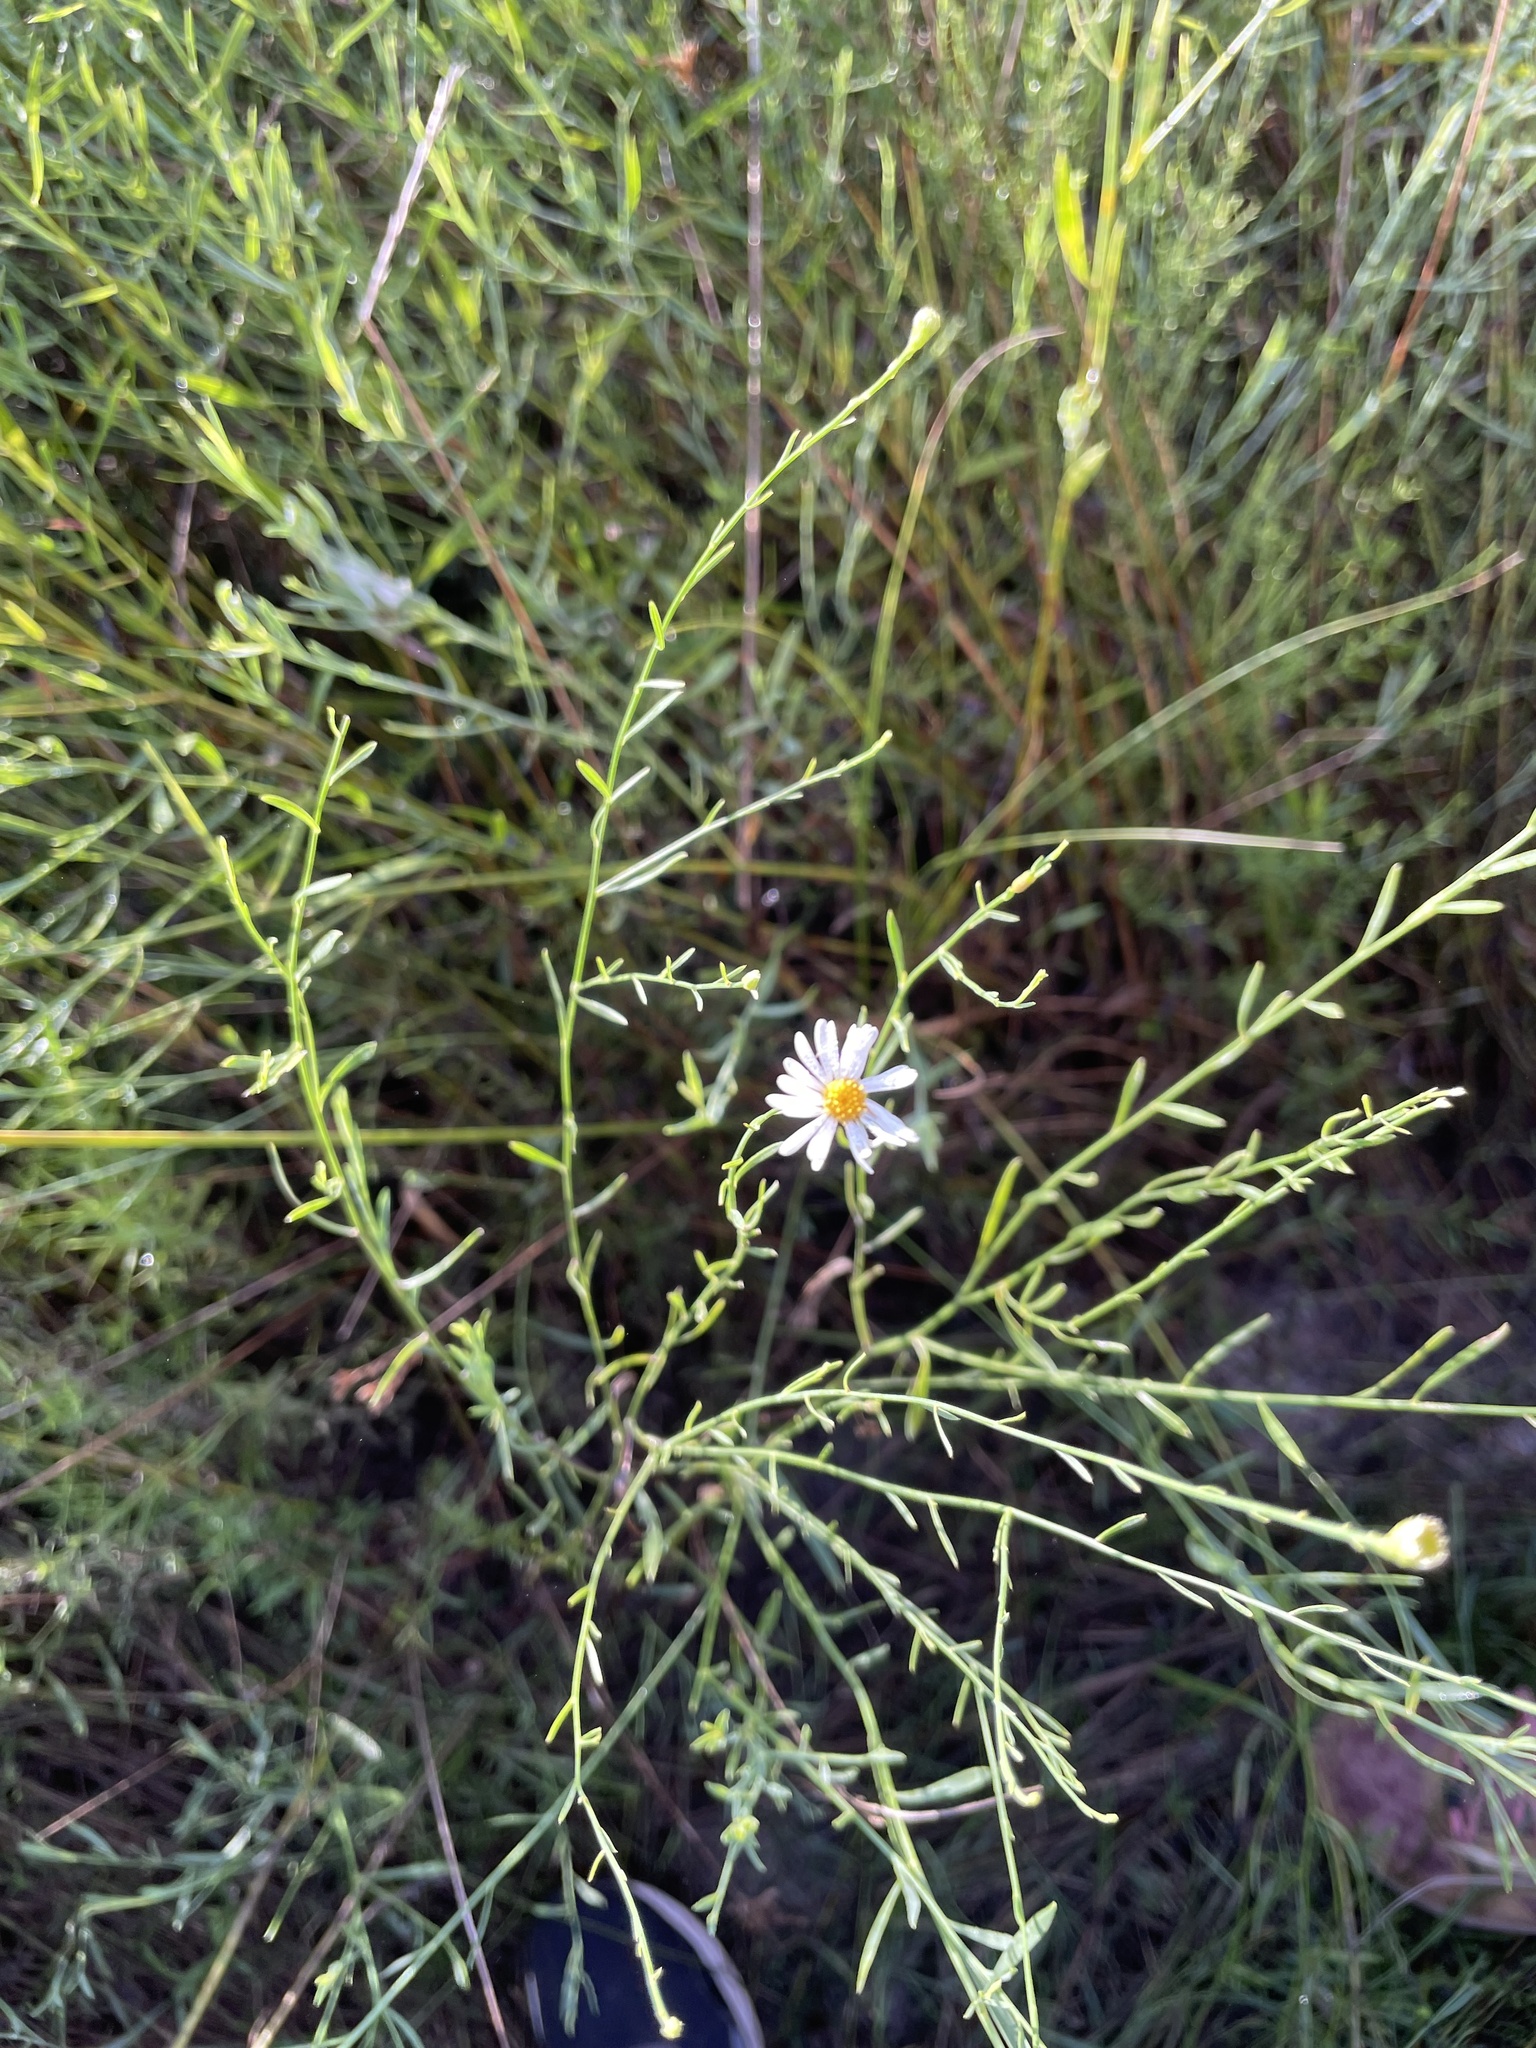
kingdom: Plantae
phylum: Tracheophyta
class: Magnoliopsida
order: Asterales
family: Asteraceae
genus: Boltonia
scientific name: Boltonia diffusa
